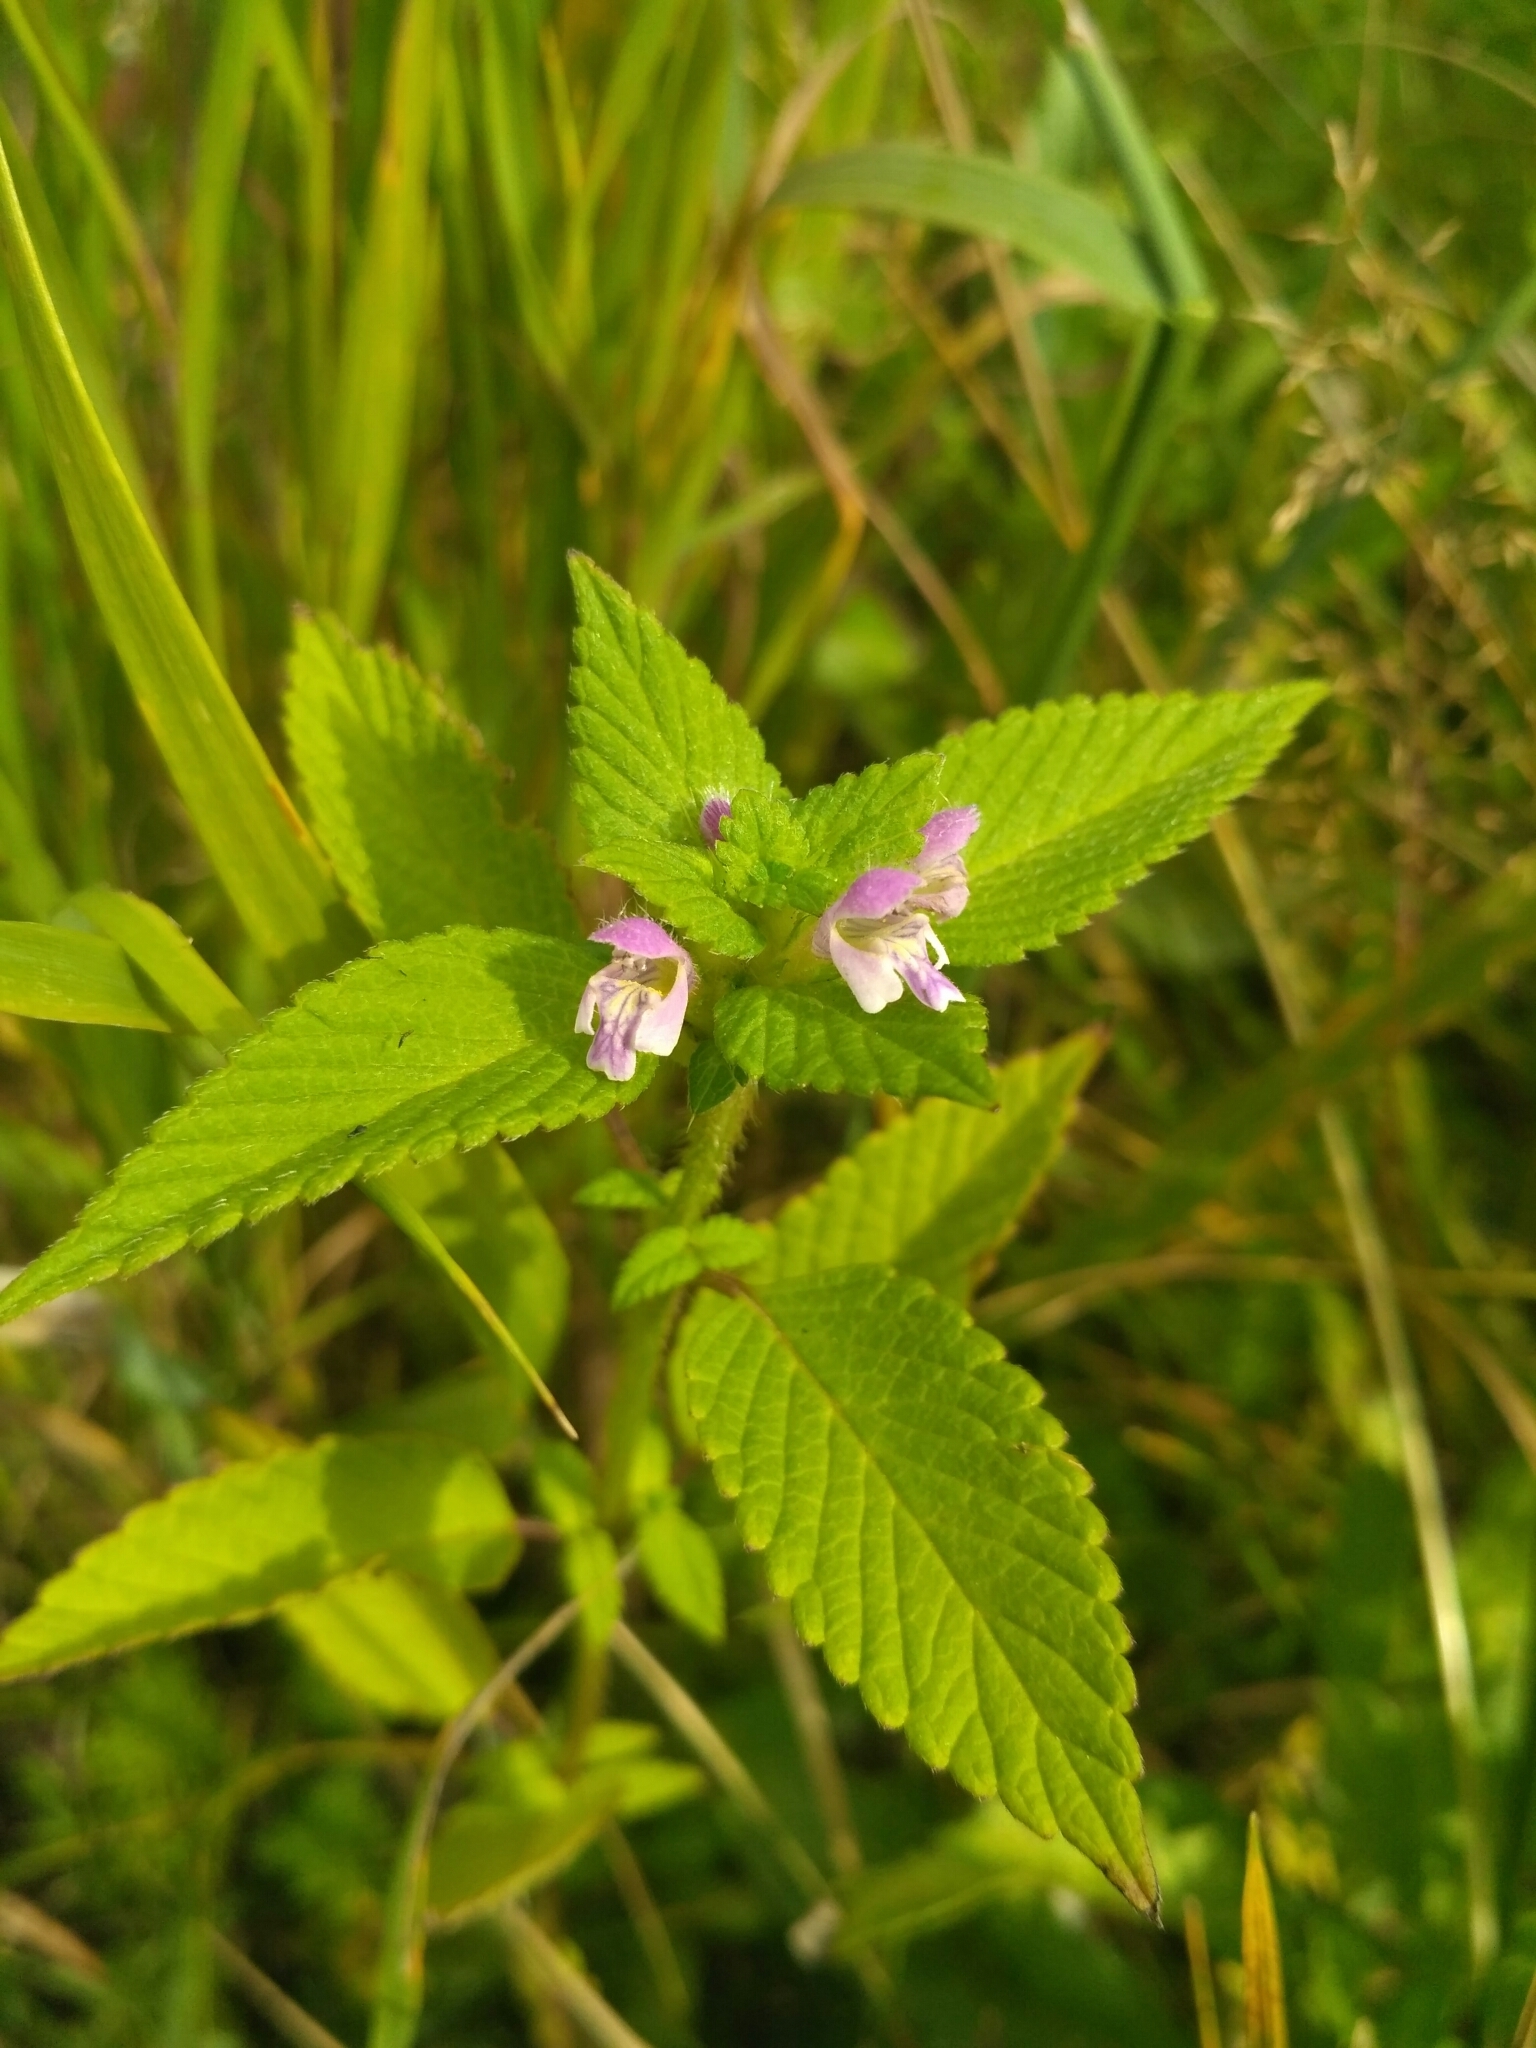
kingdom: Plantae
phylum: Tracheophyta
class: Magnoliopsida
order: Lamiales
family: Lamiaceae
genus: Galeopsis
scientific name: Galeopsis bifida
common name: Bifid hemp-nettle
